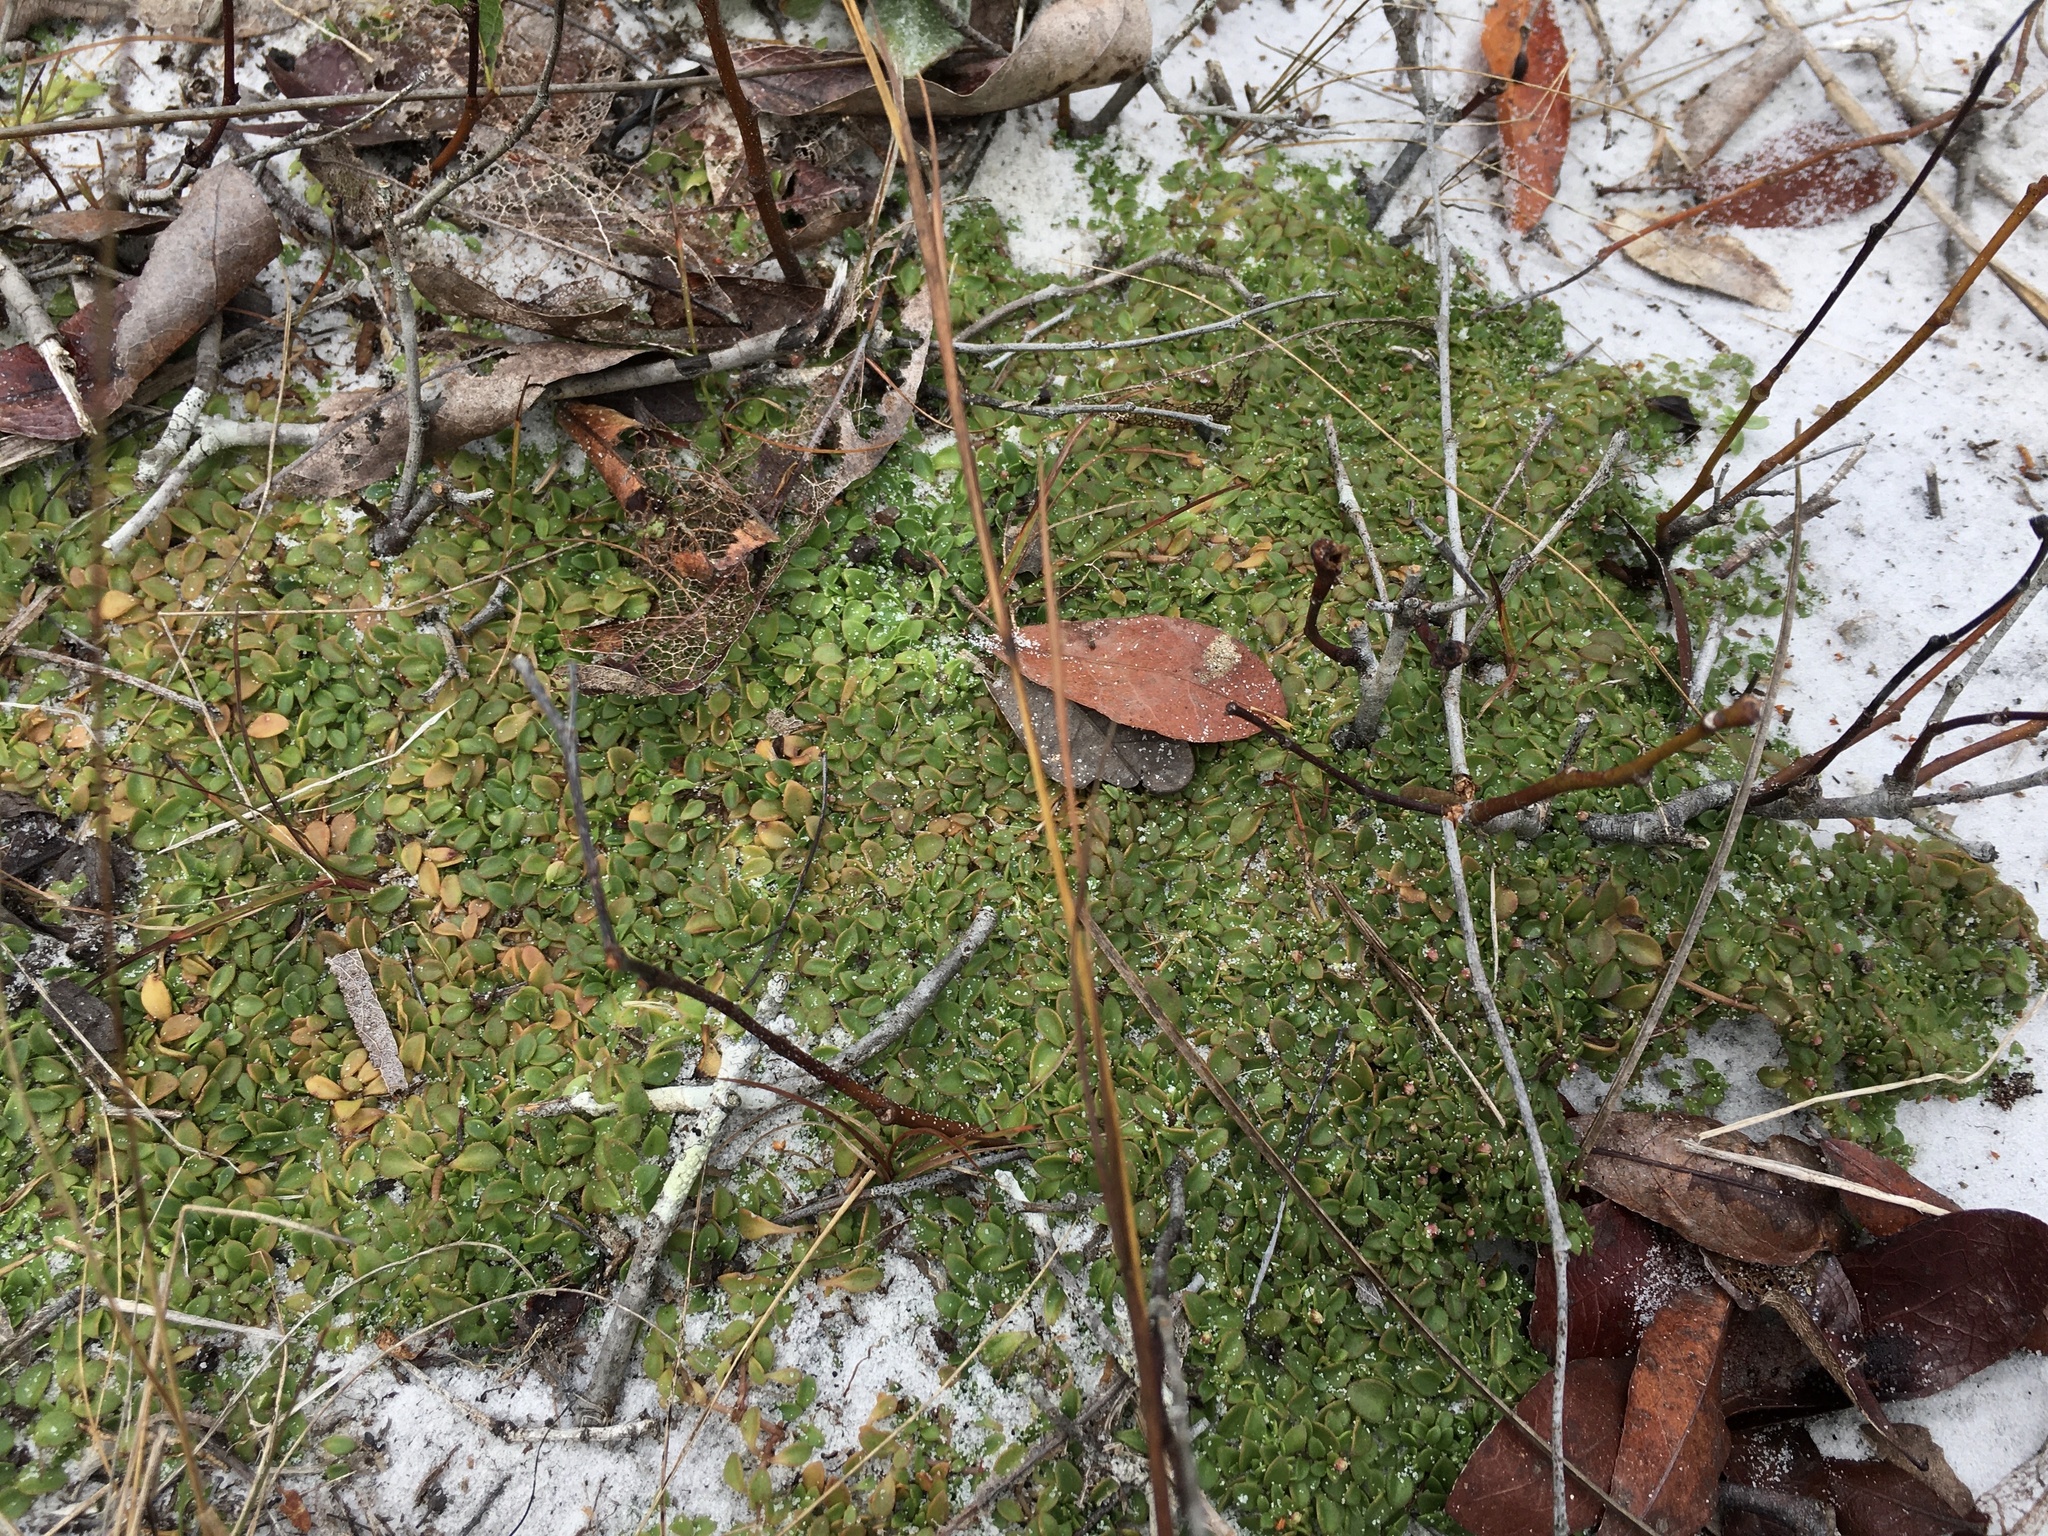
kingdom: Plantae
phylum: Tracheophyta
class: Magnoliopsida
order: Gentianales
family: Rubiaceae
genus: Houstonia
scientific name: Houstonia procumbens
